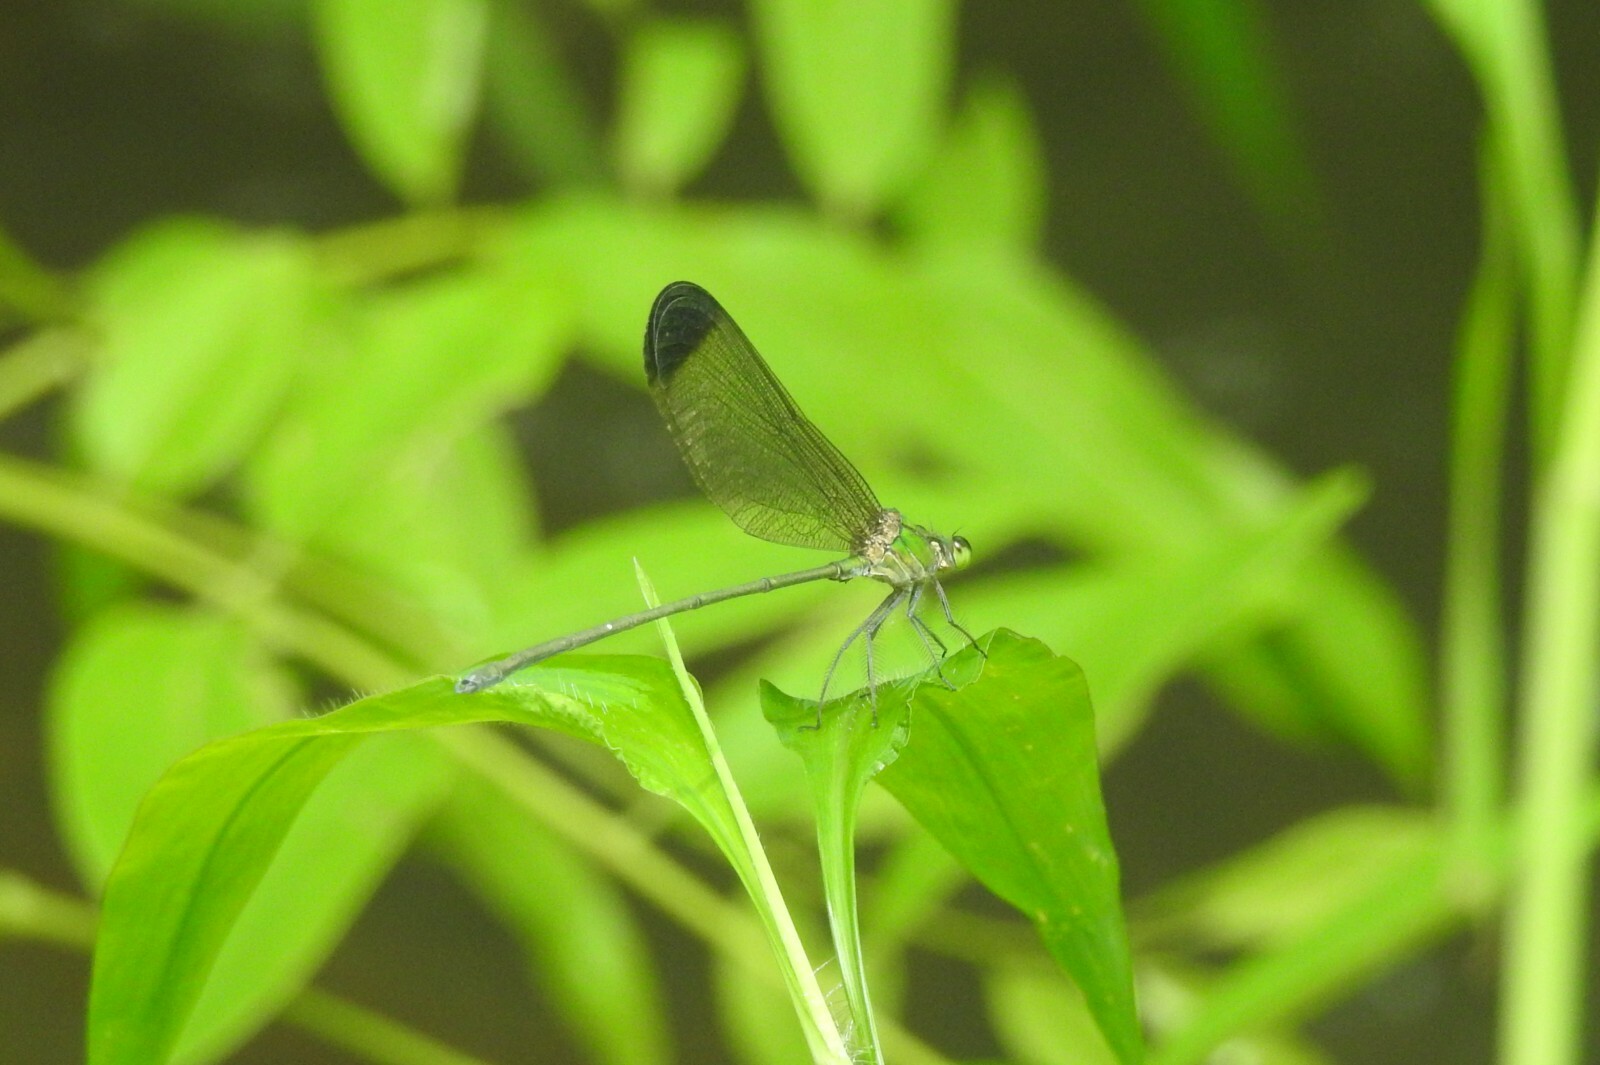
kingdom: Animalia
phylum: Arthropoda
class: Insecta
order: Odonata
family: Calopterygidae
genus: Vestalis
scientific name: Vestalis apicalis
